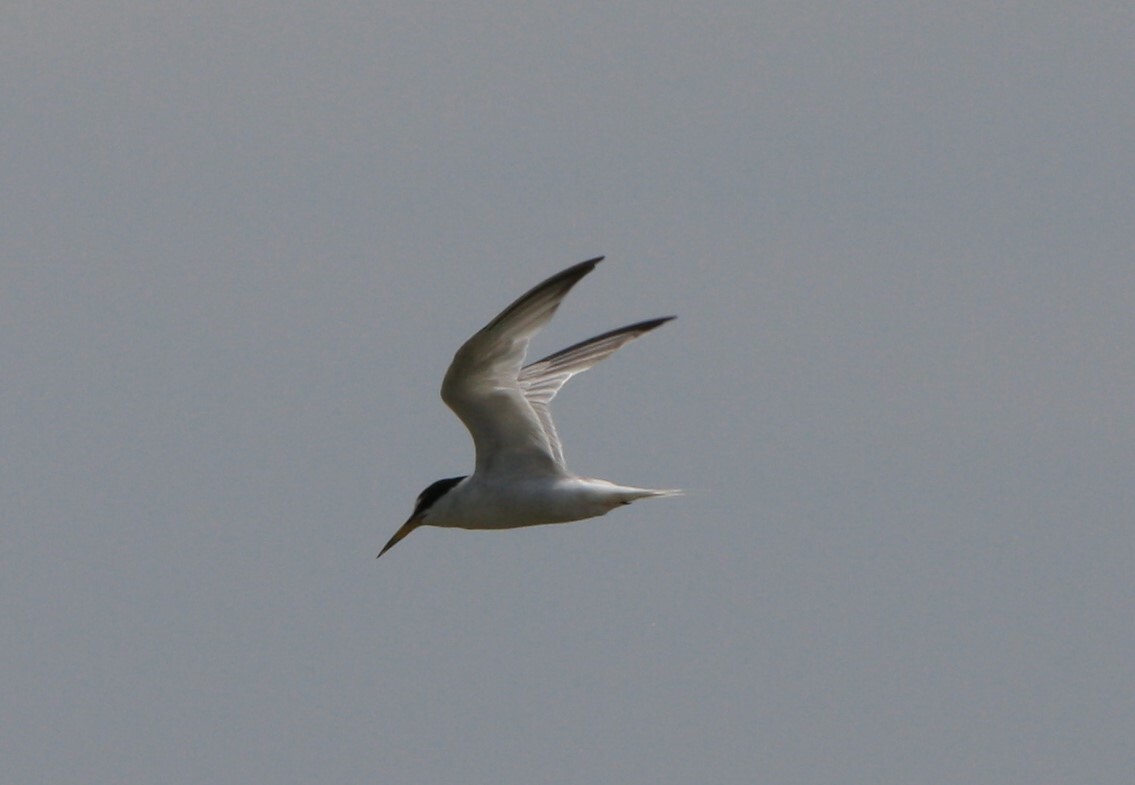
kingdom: Animalia
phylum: Chordata
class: Aves
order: Charadriiformes
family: Laridae
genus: Sternula
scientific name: Sternula albifrons
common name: Little tern
